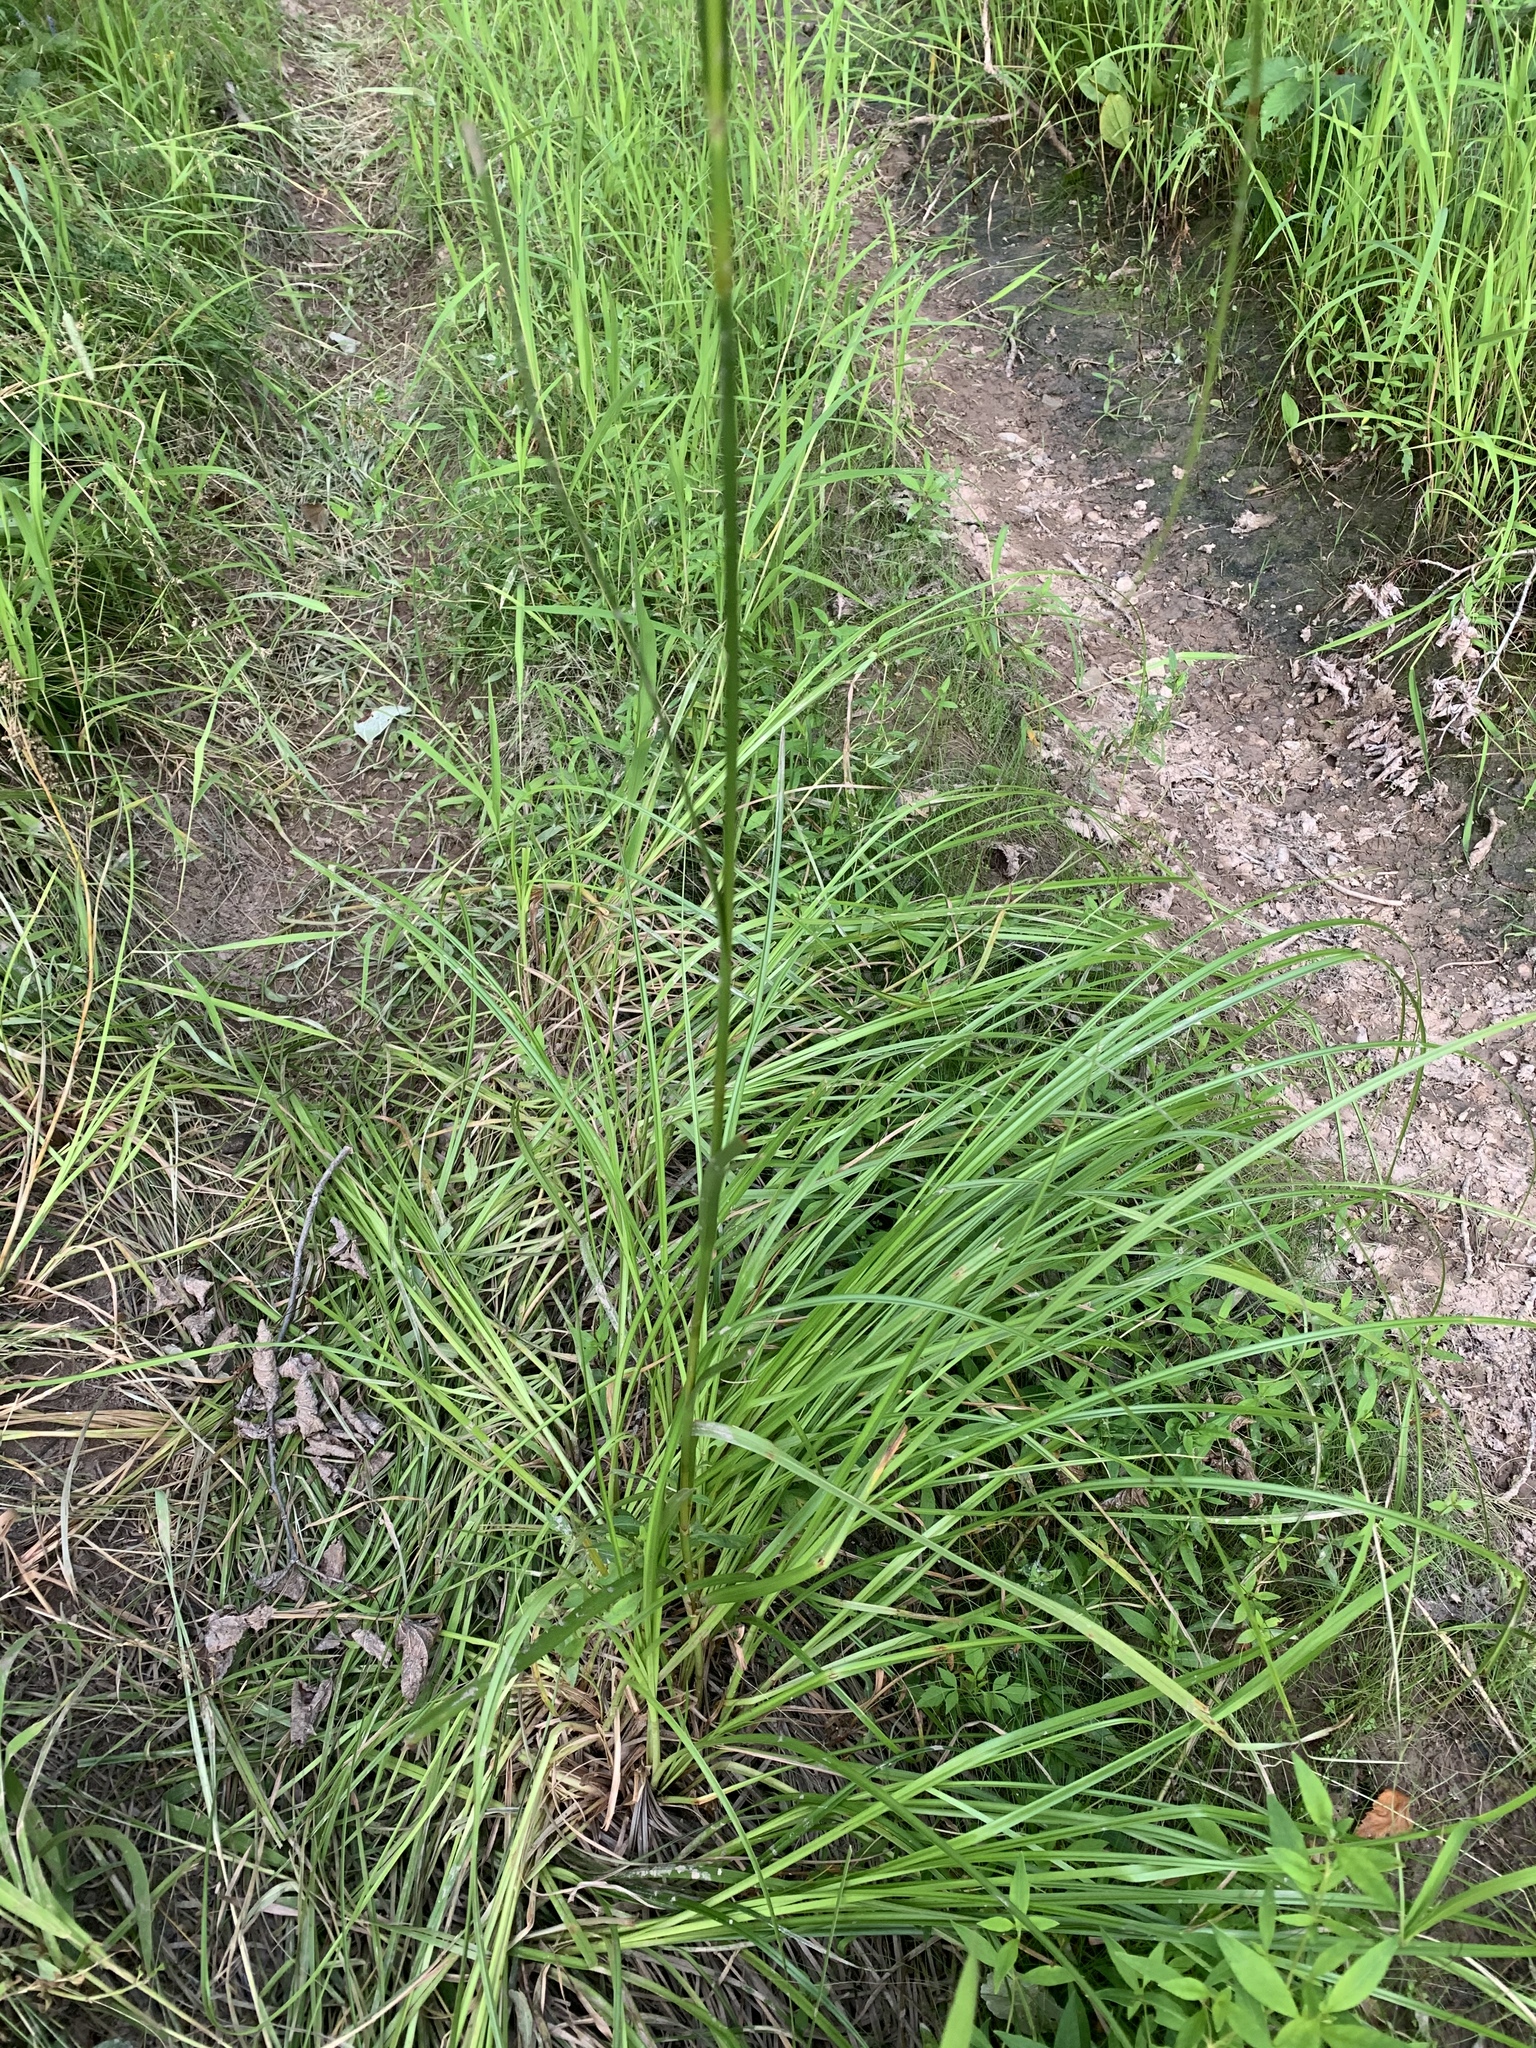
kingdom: Plantae
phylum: Tracheophyta
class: Liliopsida
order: Poales
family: Cyperaceae
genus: Scirpus
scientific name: Scirpus cyperinus
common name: Black-sheathed bulrush
